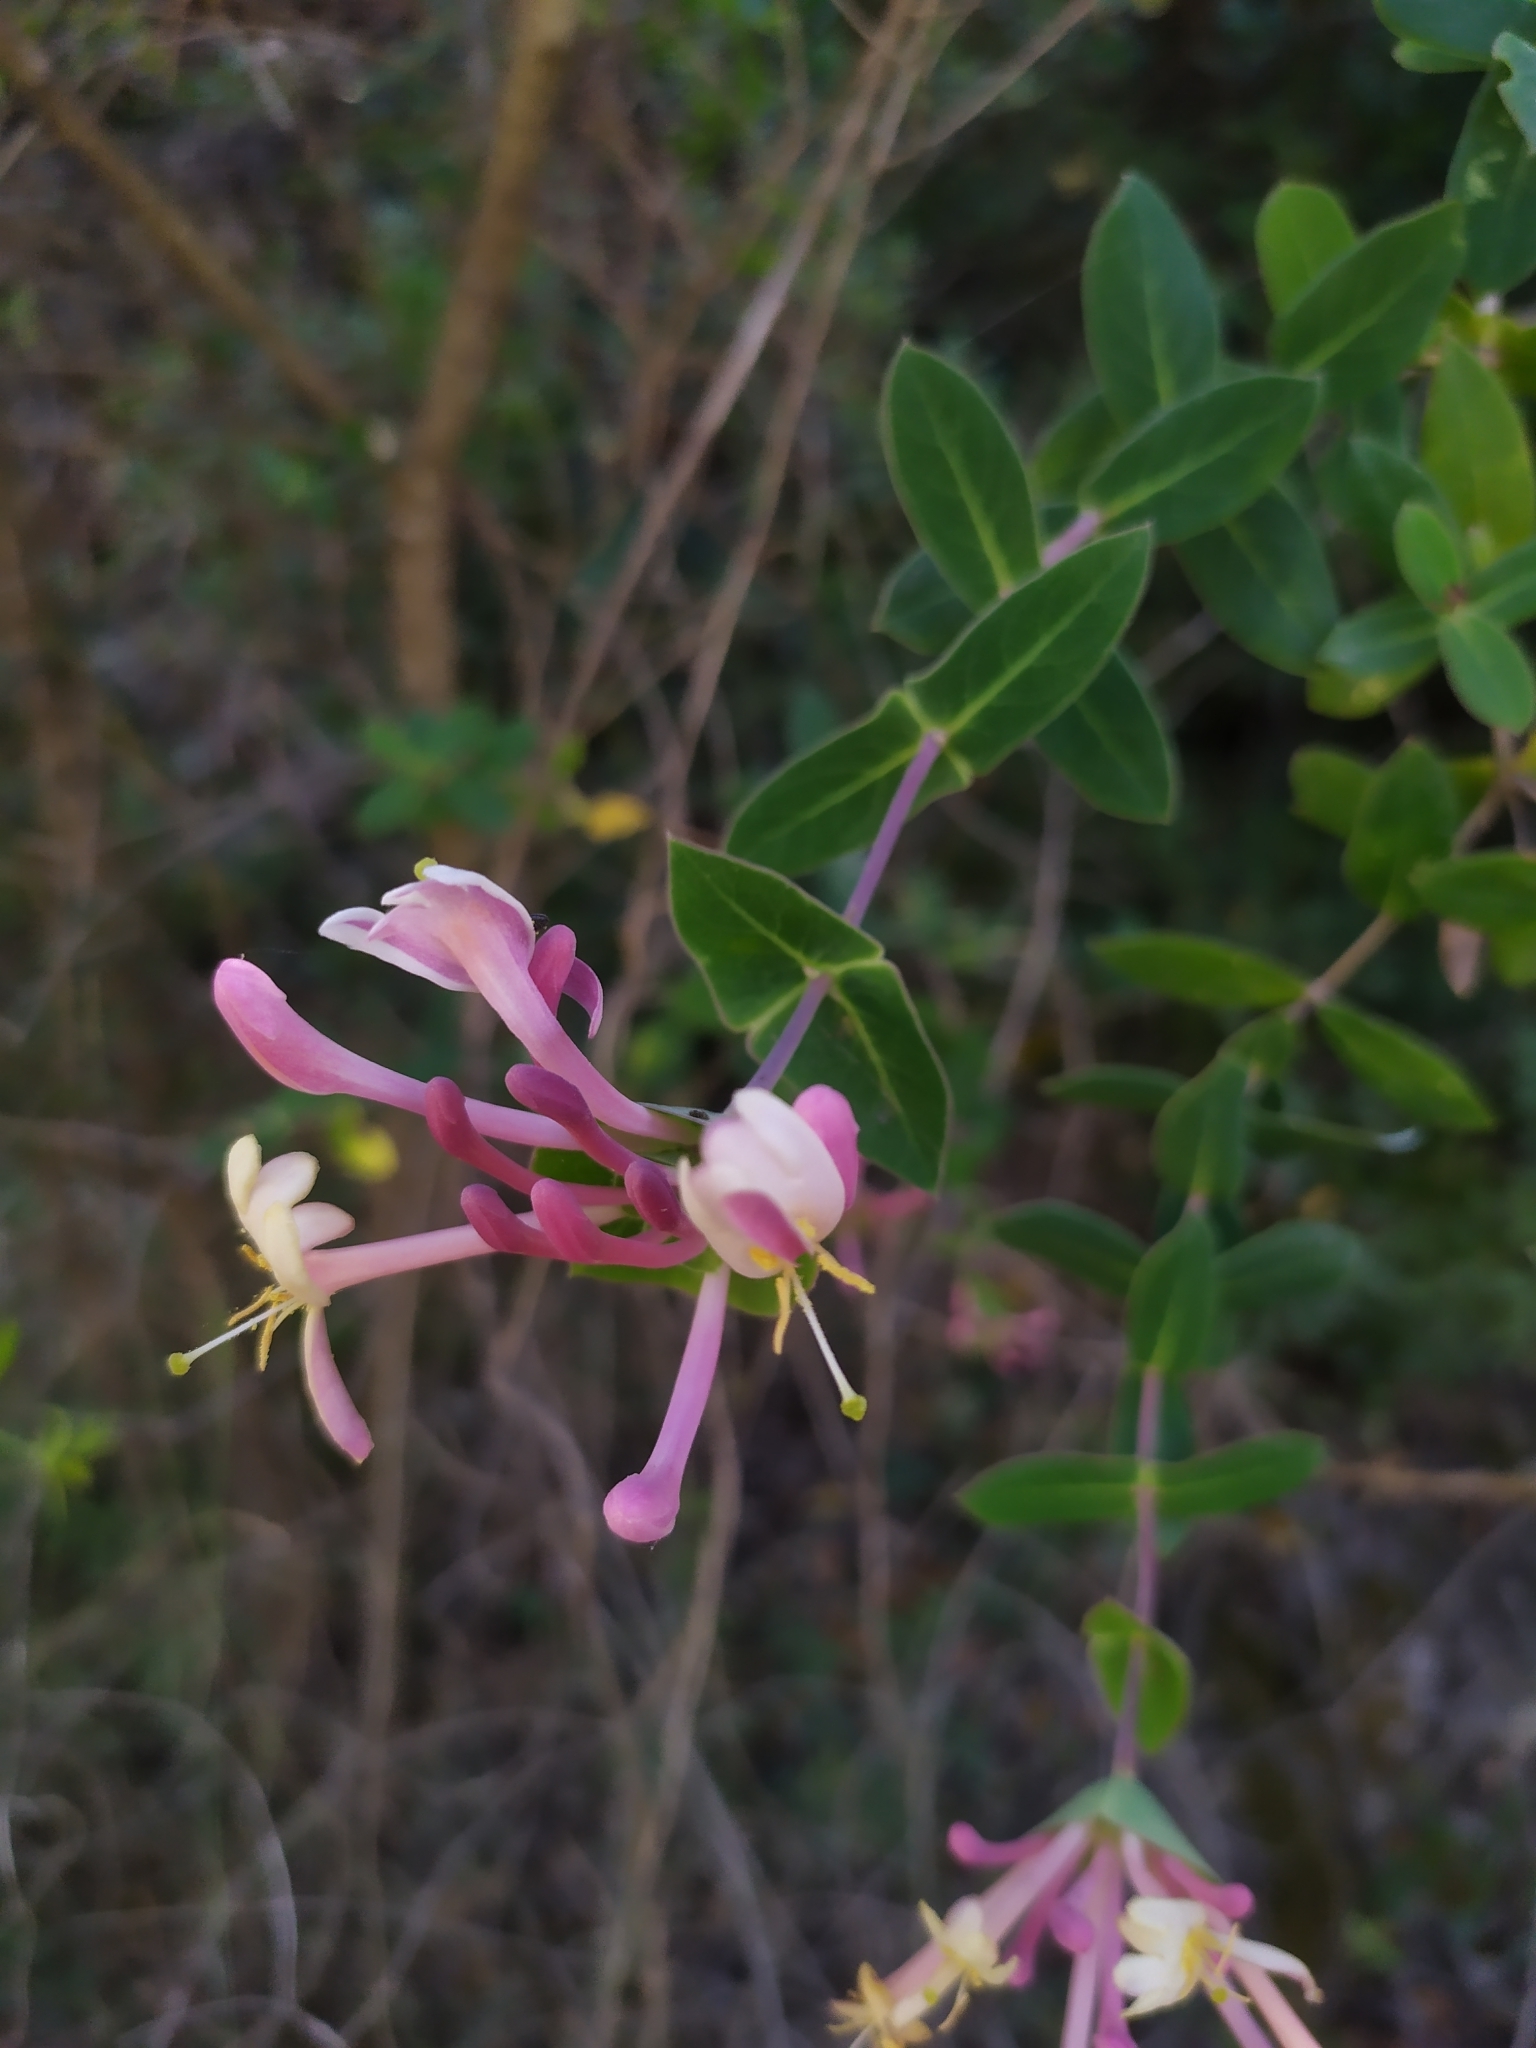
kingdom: Plantae
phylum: Tracheophyta
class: Magnoliopsida
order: Dipsacales
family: Caprifoliaceae
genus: Lonicera
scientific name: Lonicera implexa
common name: Minorca honeysuckle
